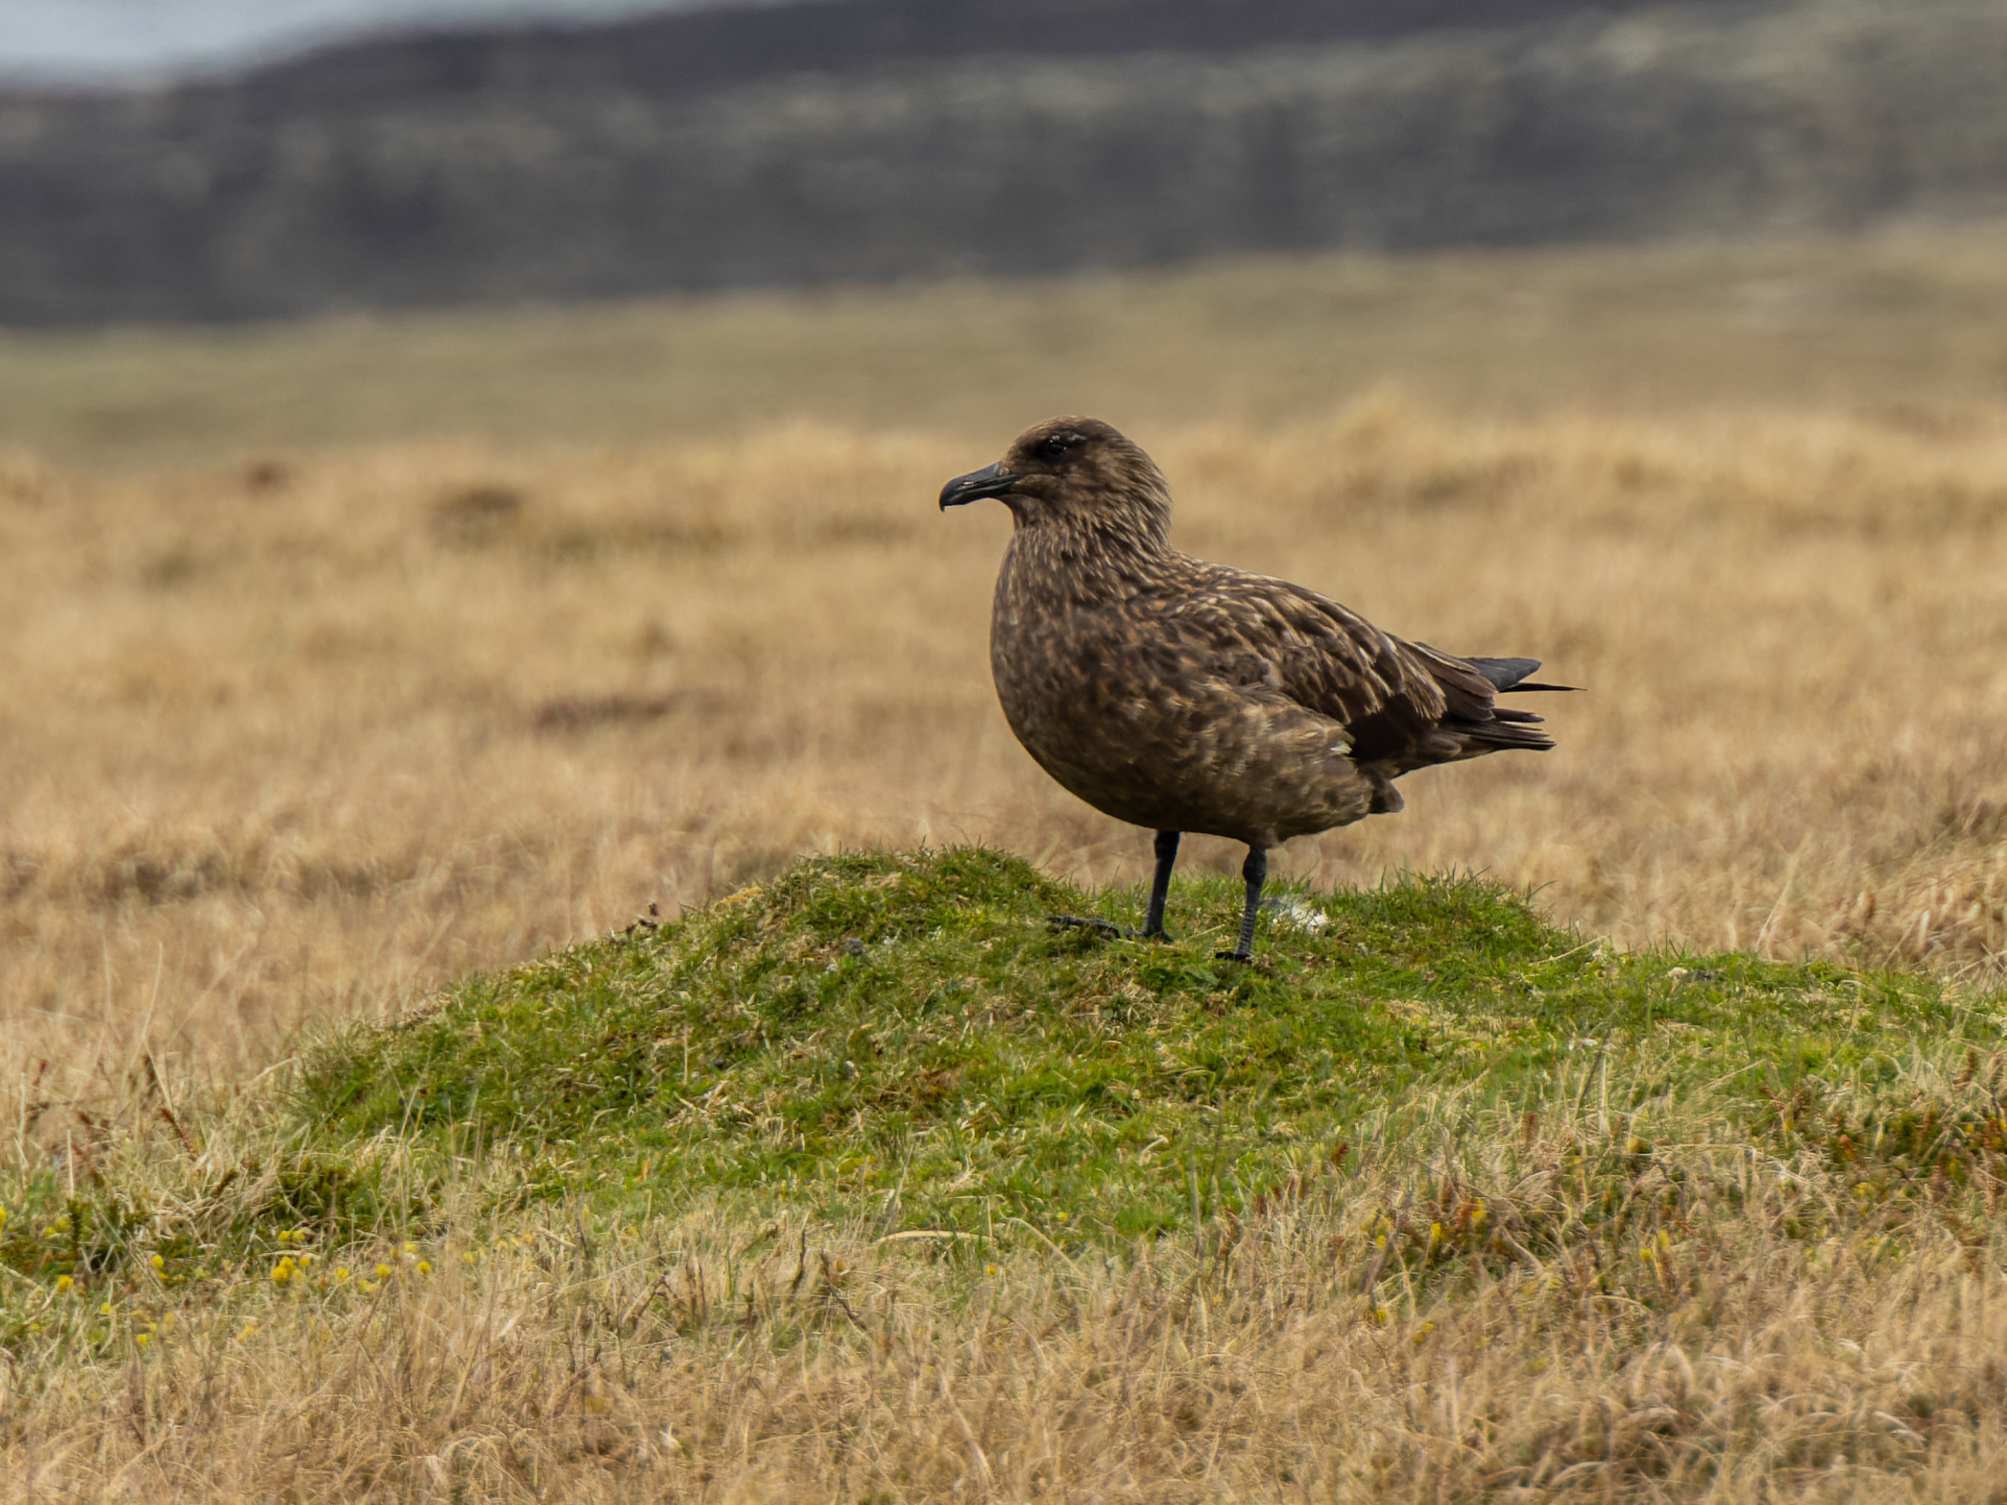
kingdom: Animalia
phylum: Chordata
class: Aves
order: Charadriiformes
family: Stercorariidae
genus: Stercorarius
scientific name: Stercorarius skua
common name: Great skua
